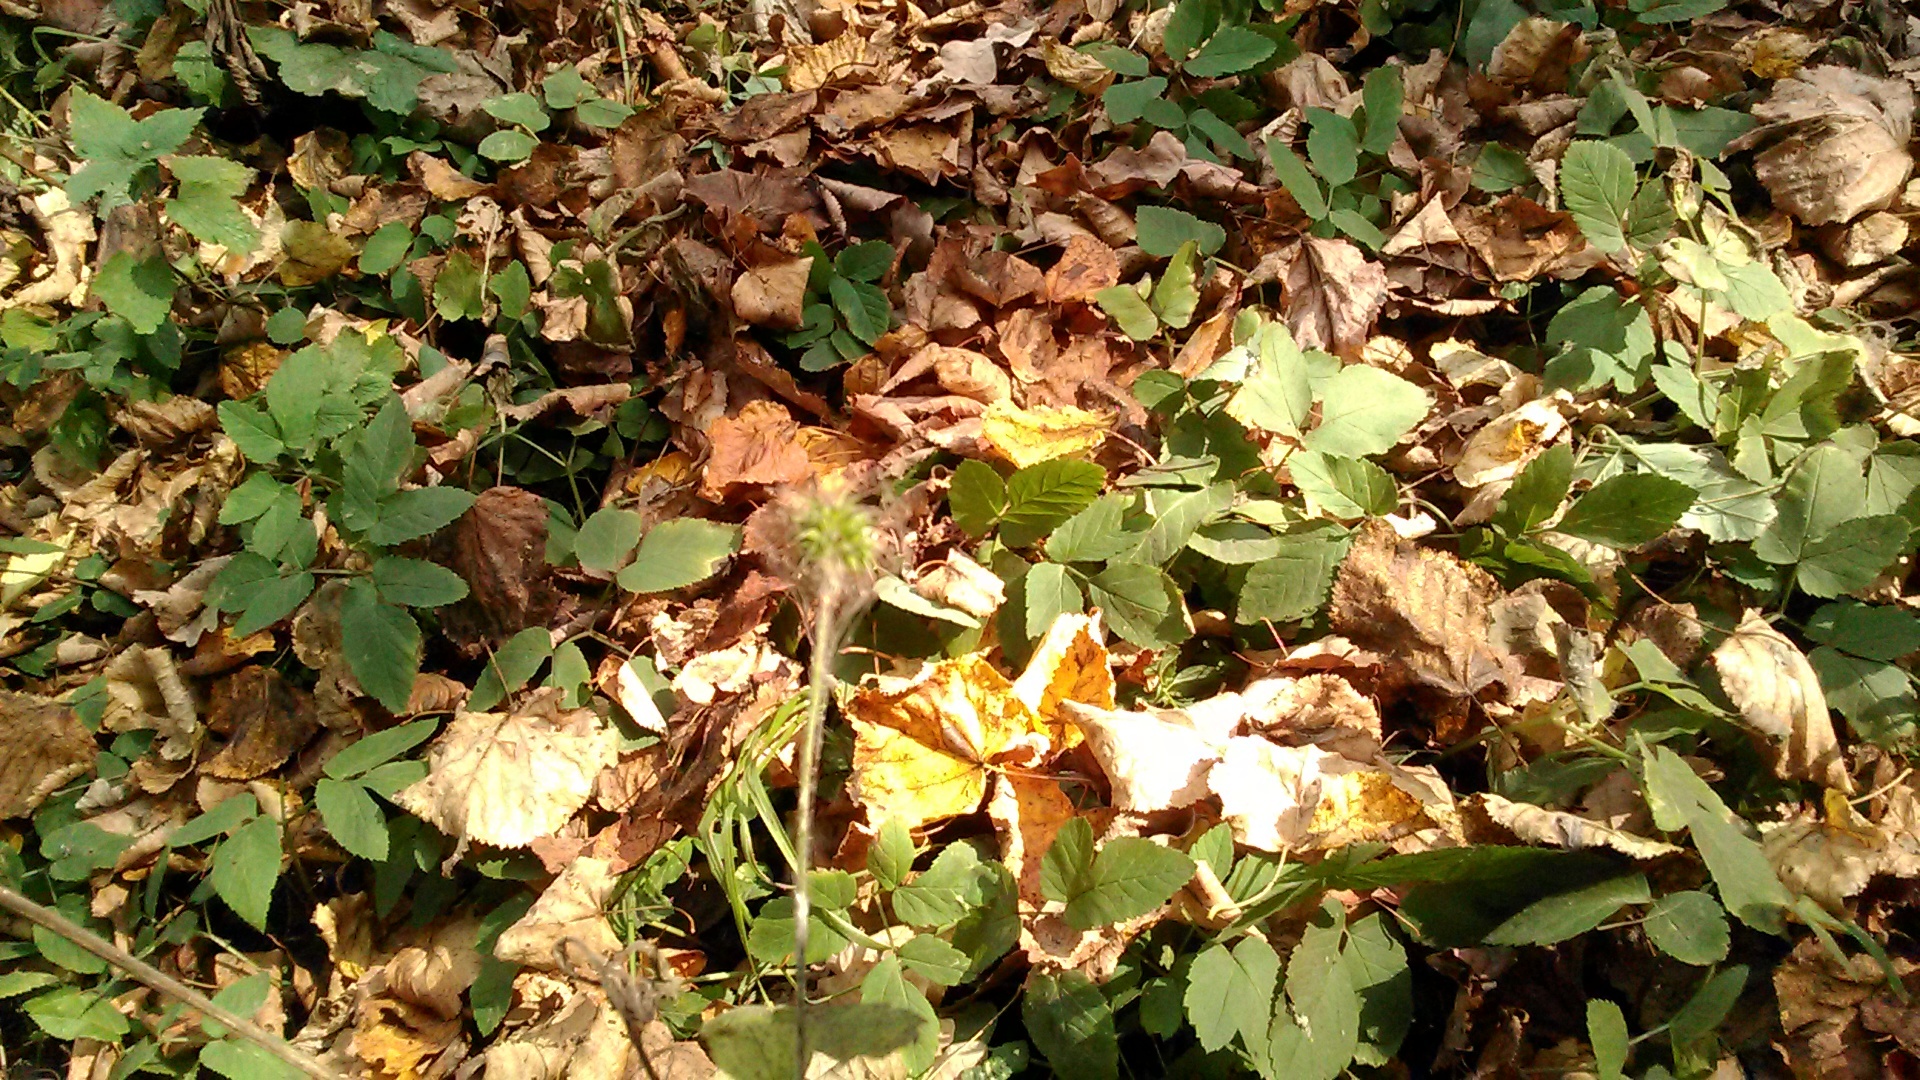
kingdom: Plantae
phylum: Tracheophyta
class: Magnoliopsida
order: Rosales
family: Rosaceae
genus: Geum
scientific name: Geum urbanum
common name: Wood avens
